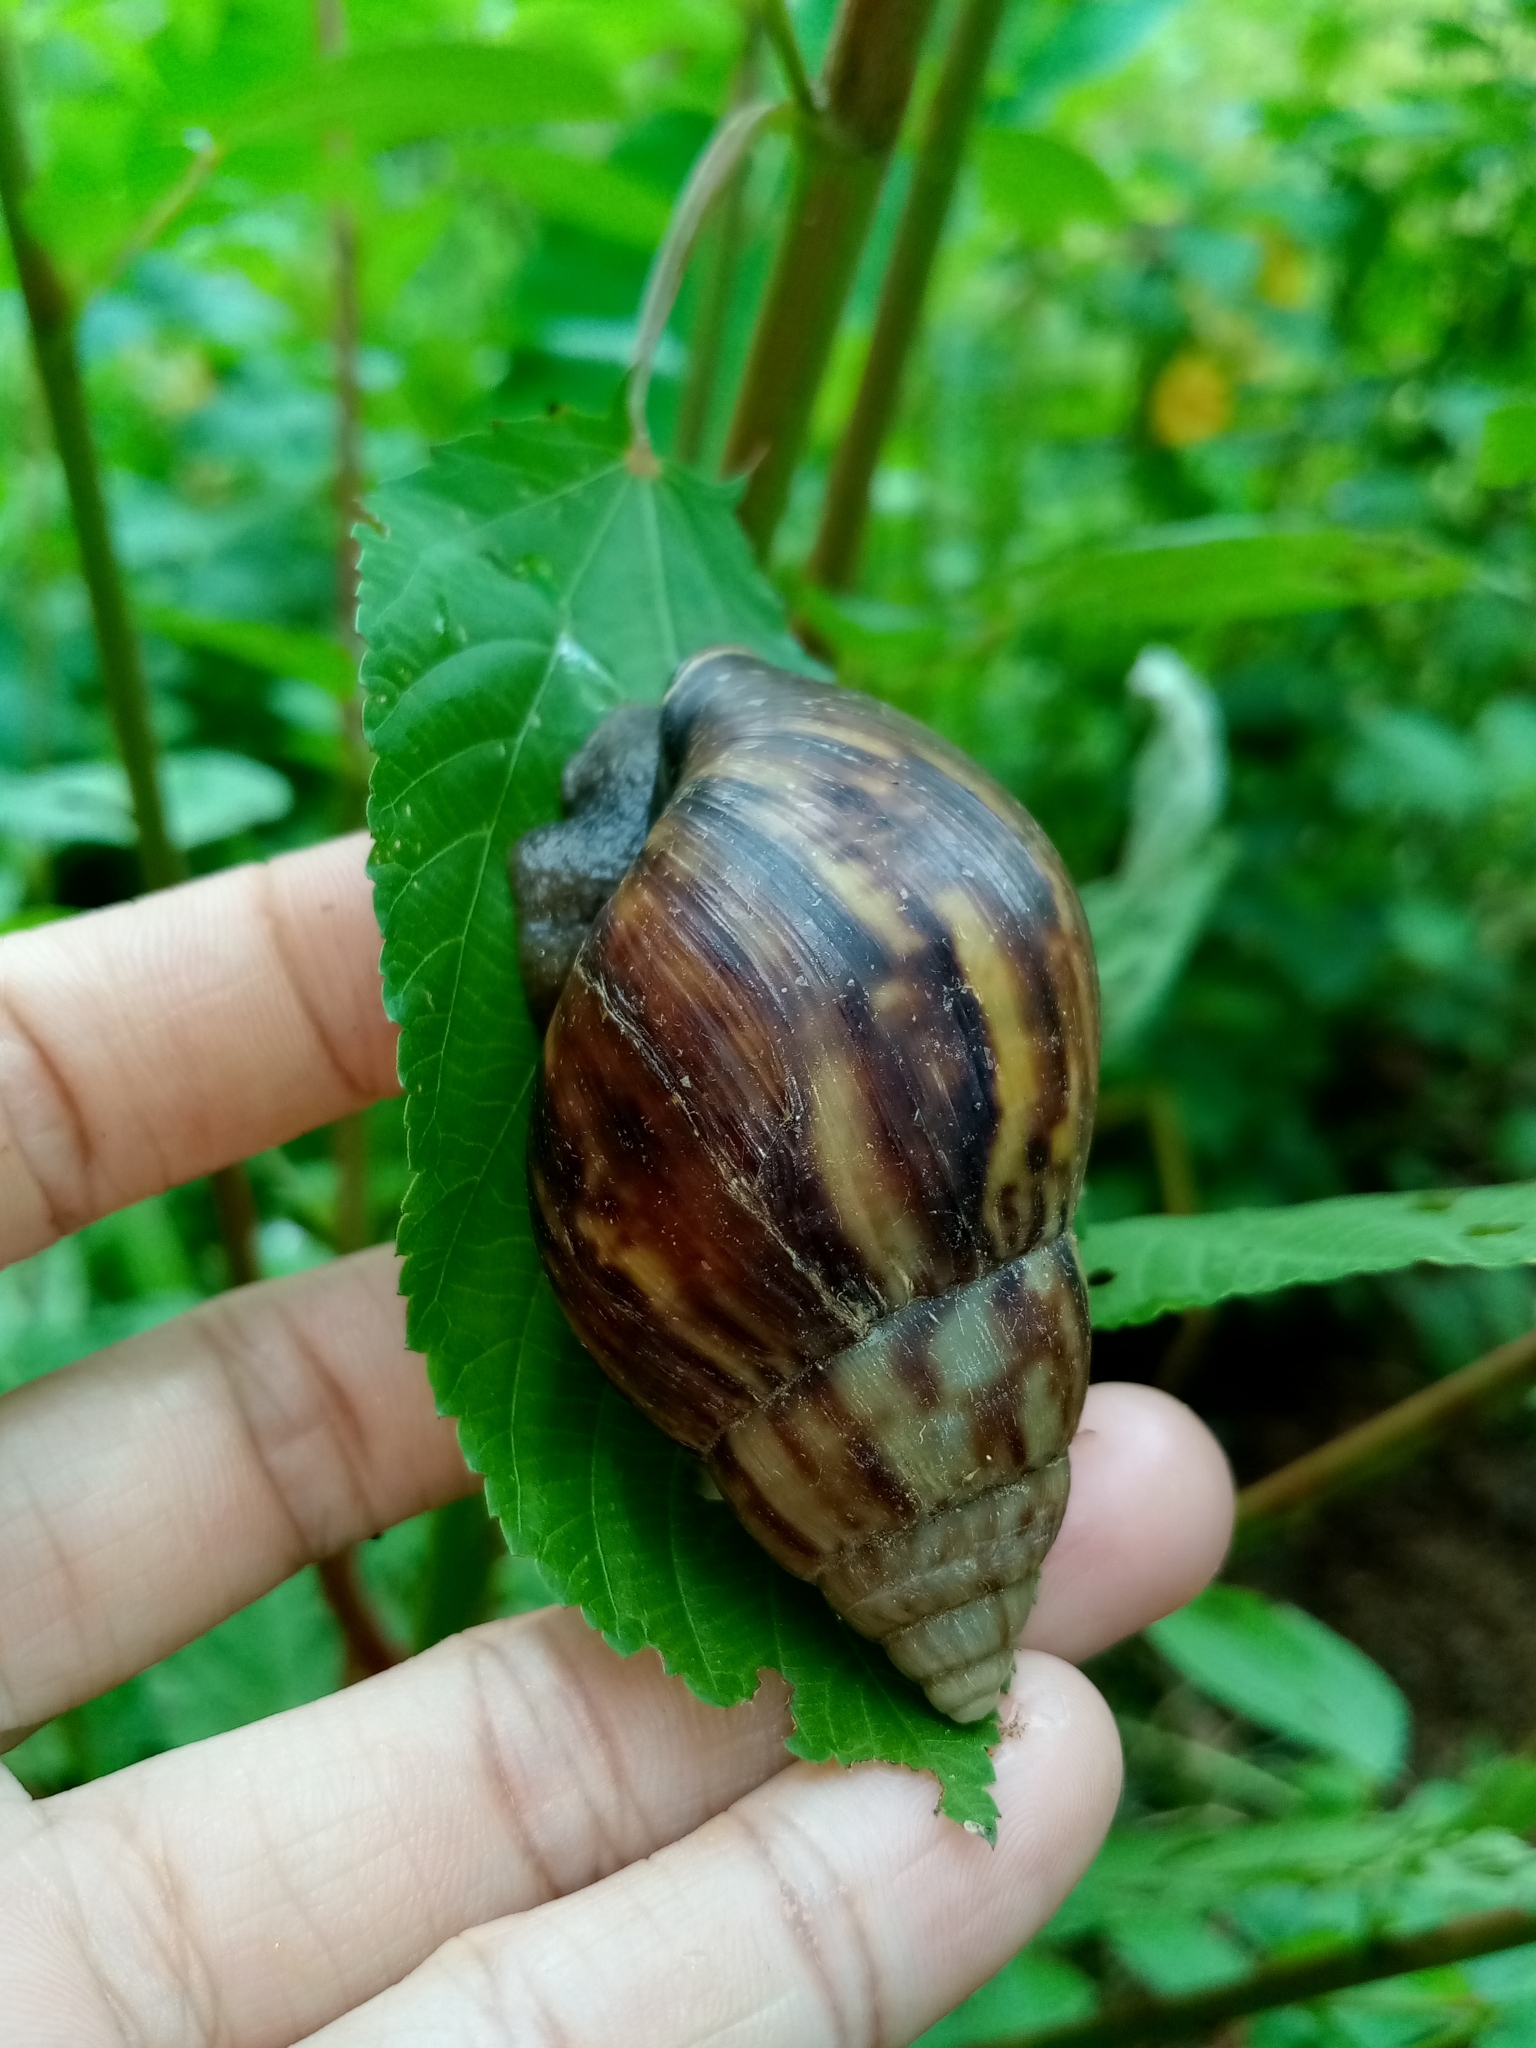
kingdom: Animalia
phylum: Mollusca
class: Gastropoda
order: Stylommatophora
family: Achatinidae
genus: Lissachatina
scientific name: Lissachatina fulica
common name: Giant african snail
